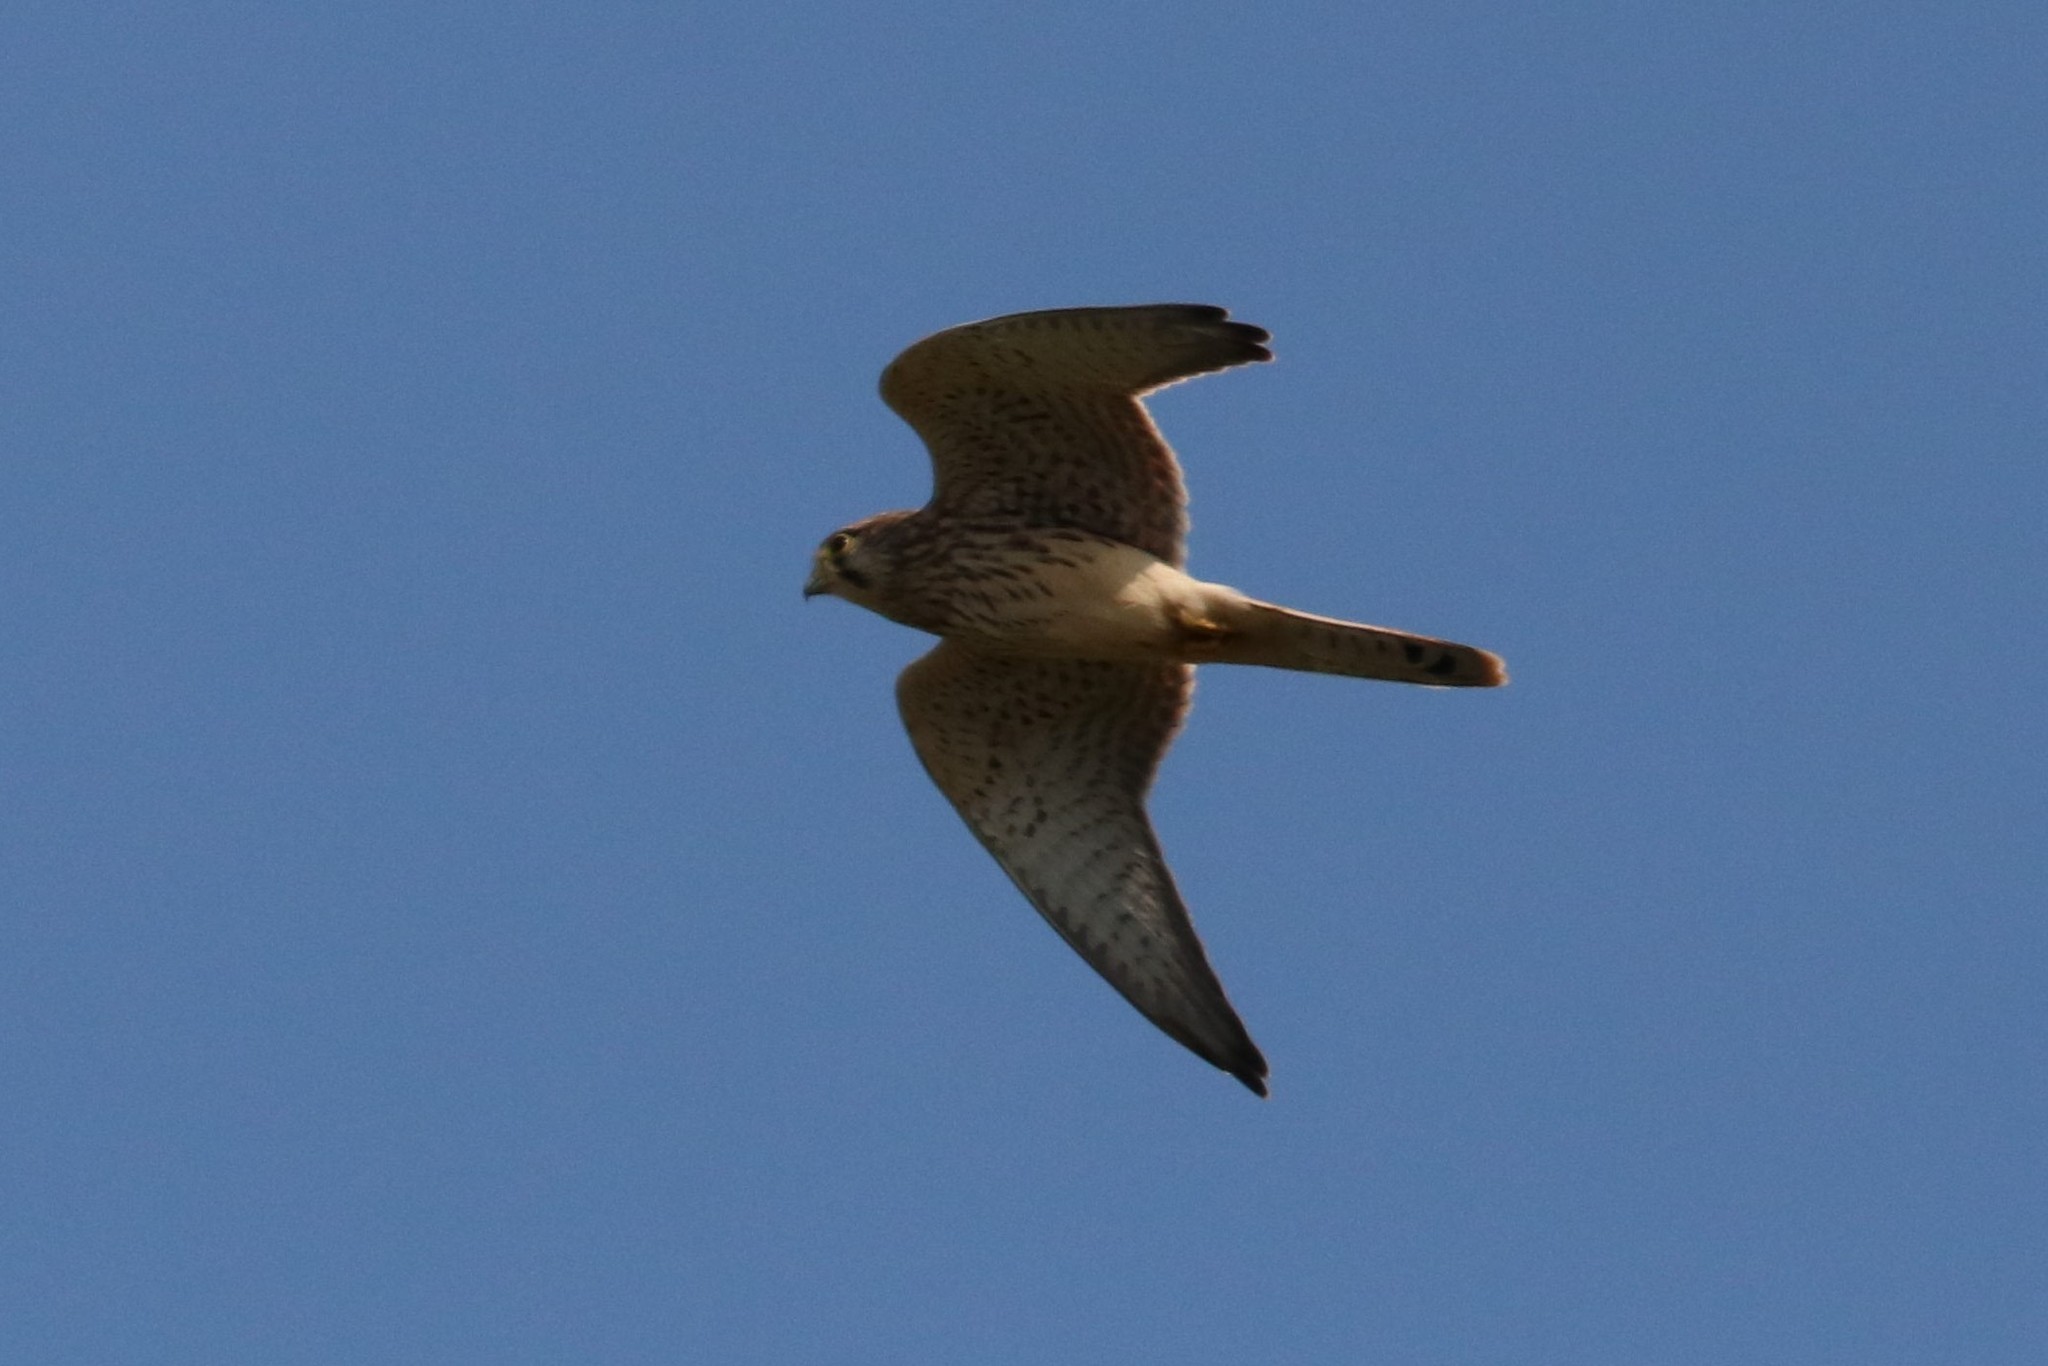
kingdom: Animalia
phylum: Chordata
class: Aves
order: Falconiformes
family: Falconidae
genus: Falco
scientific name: Falco tinnunculus
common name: Common kestrel
